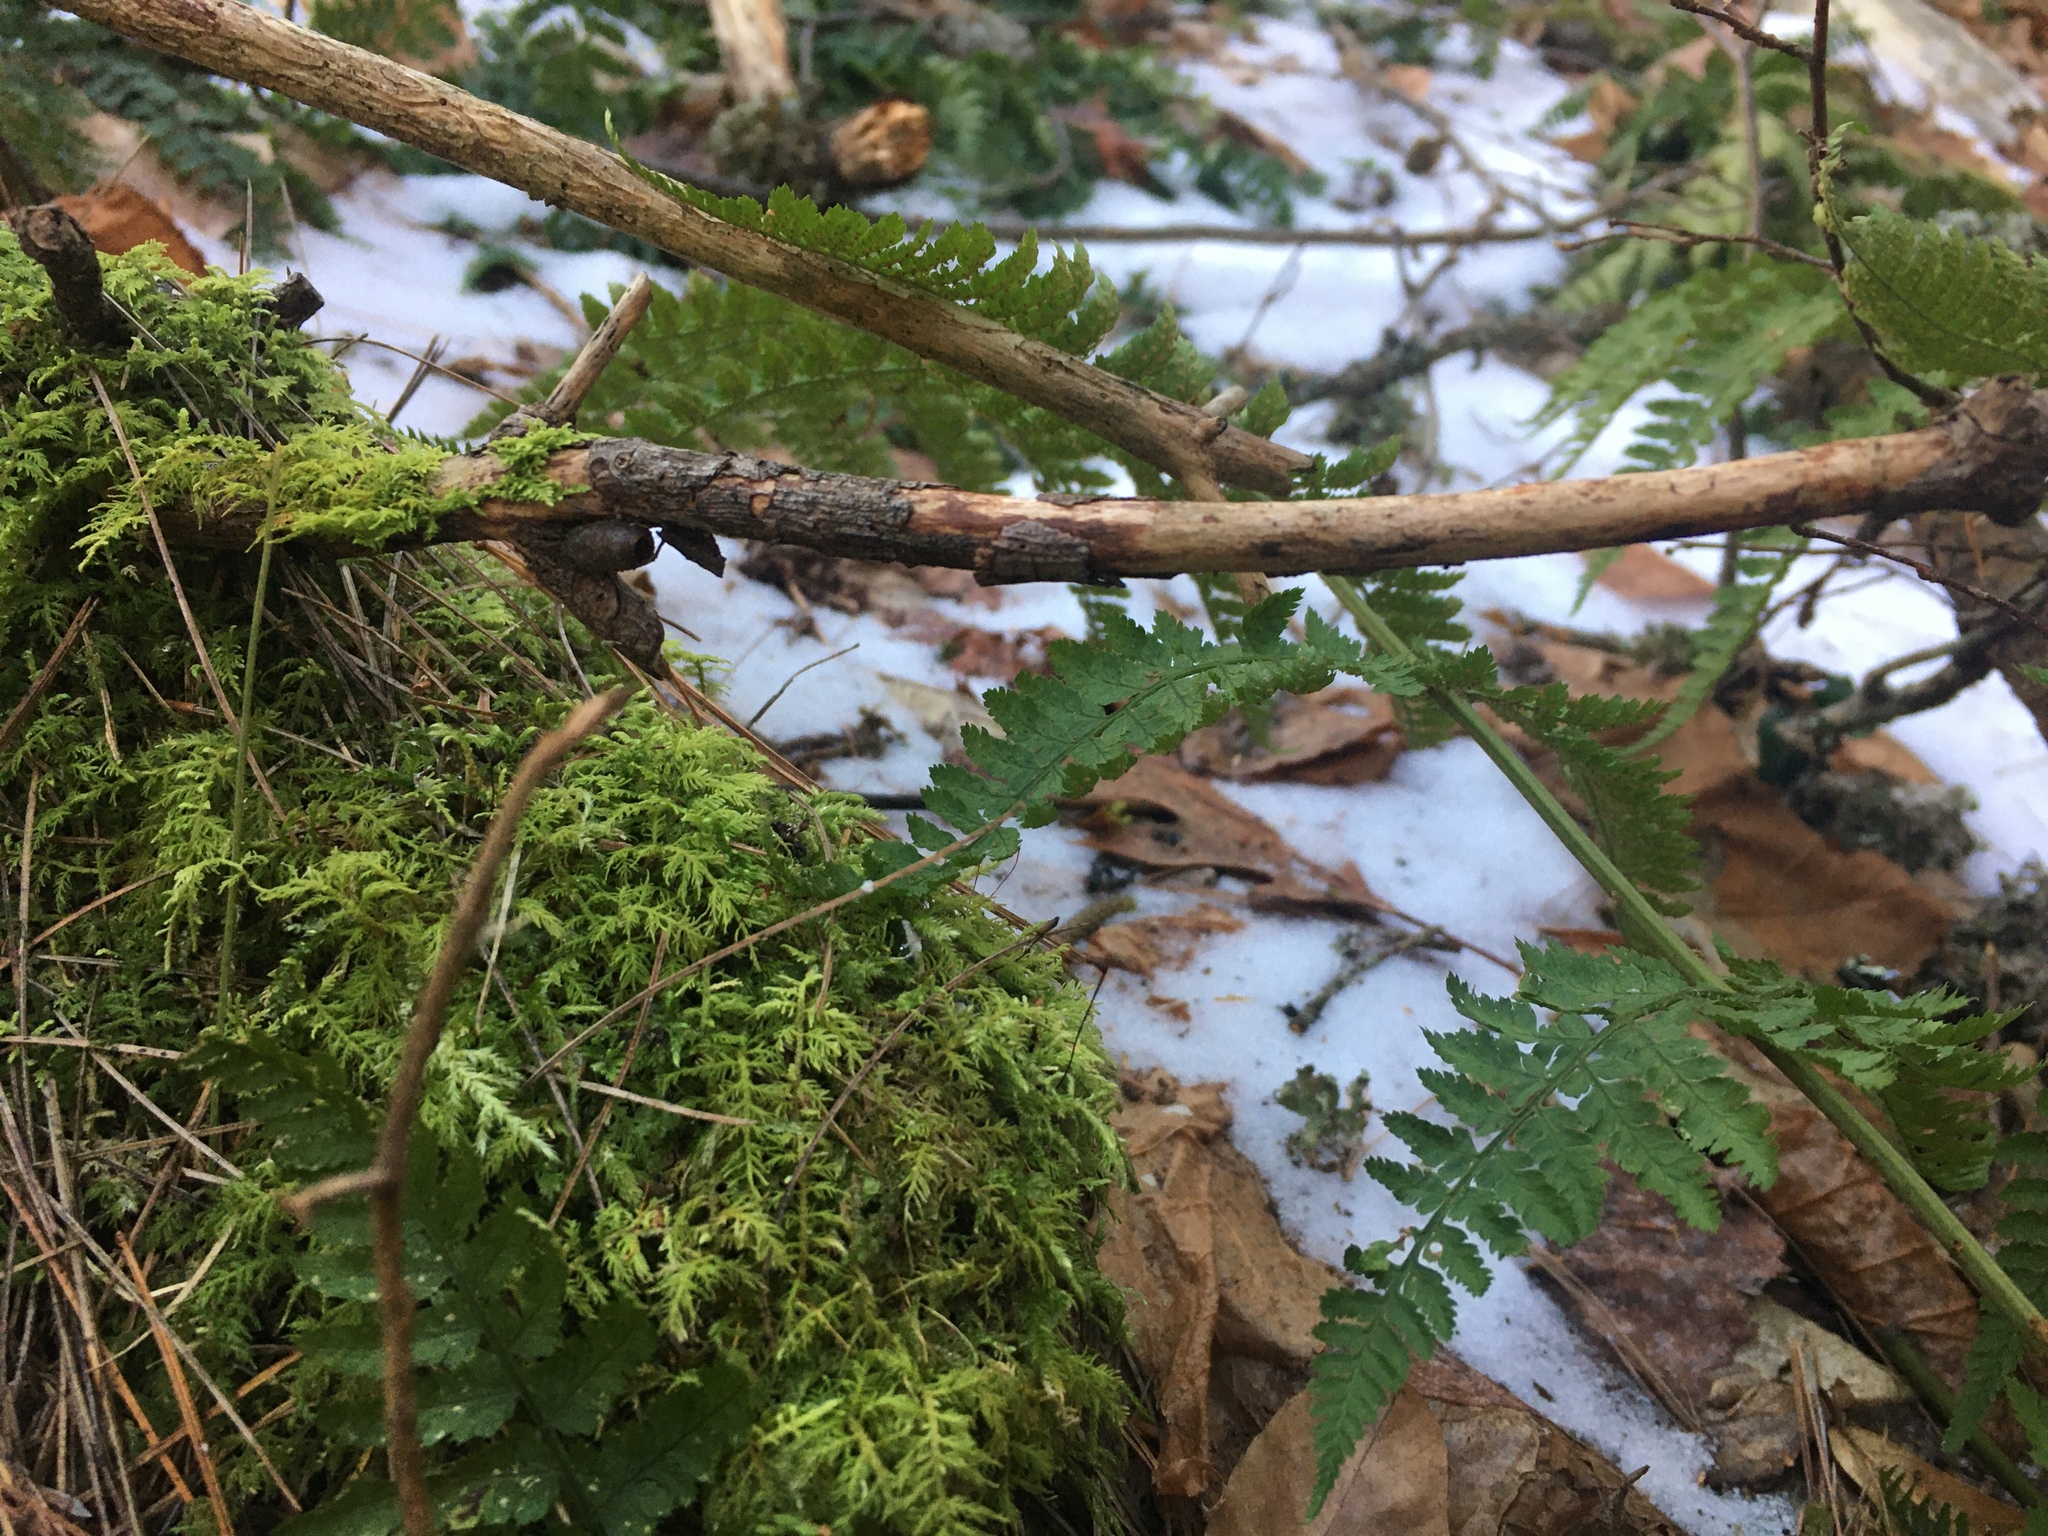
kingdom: Plantae
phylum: Bryophyta
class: Bryopsida
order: Hypnales
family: Thuidiaceae
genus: Thuidium
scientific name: Thuidium delicatulum
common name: Delicate fern moss
